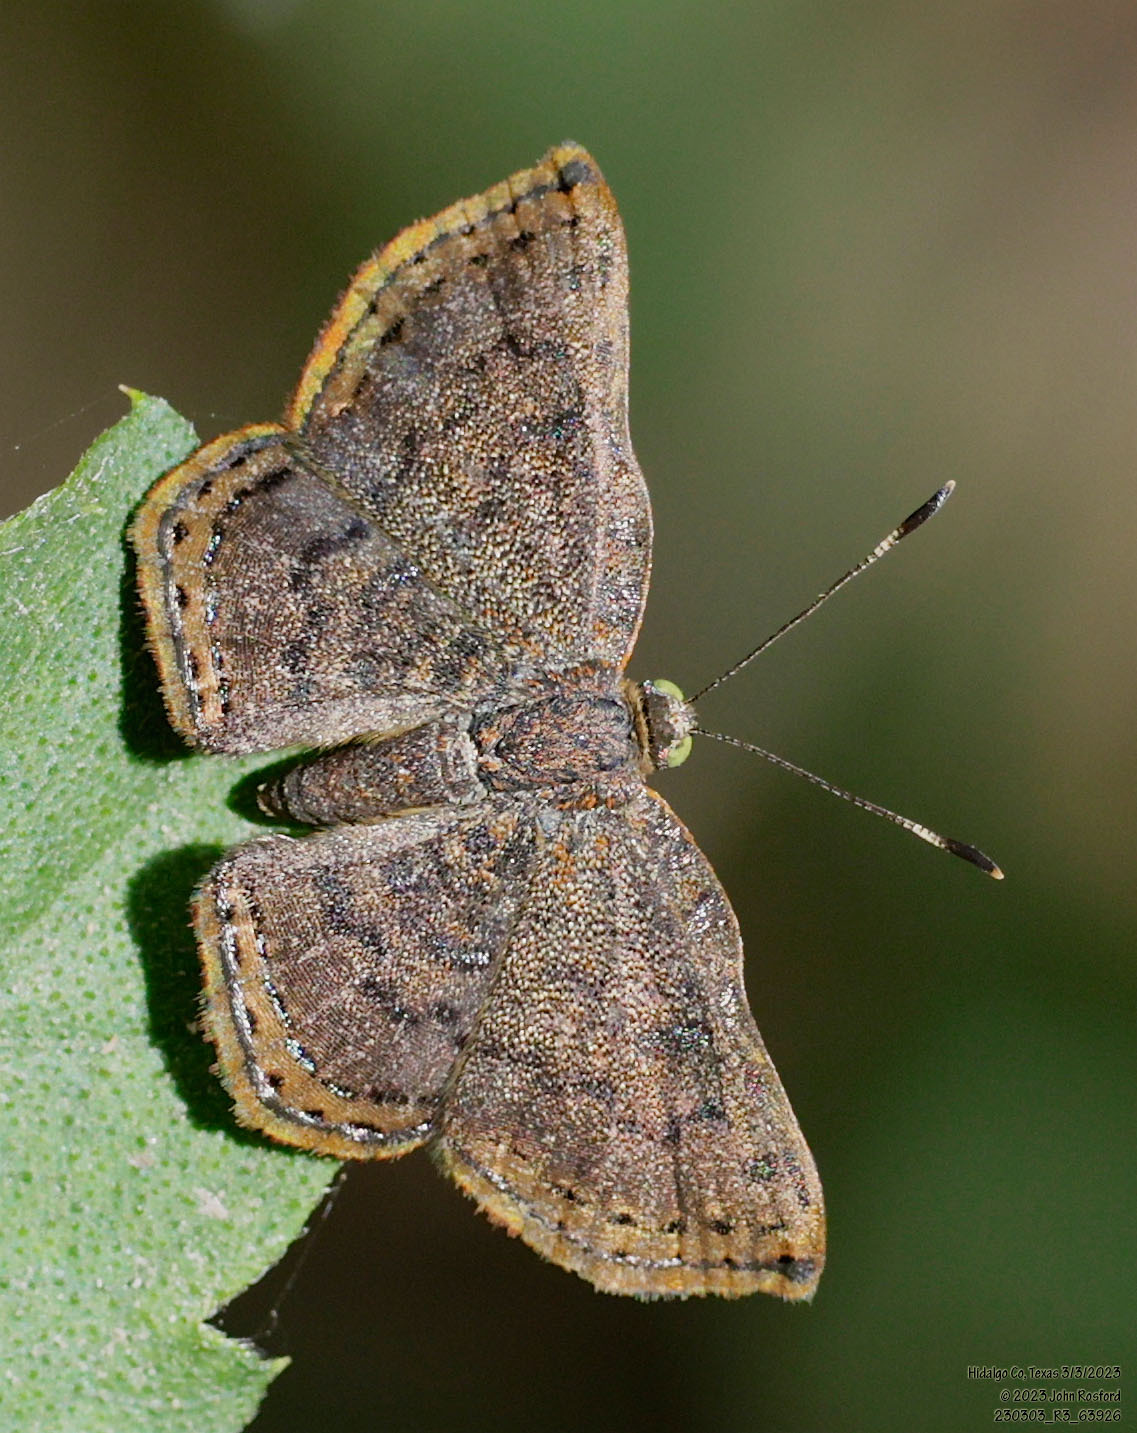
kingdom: Animalia
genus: Caria
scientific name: Caria ino
